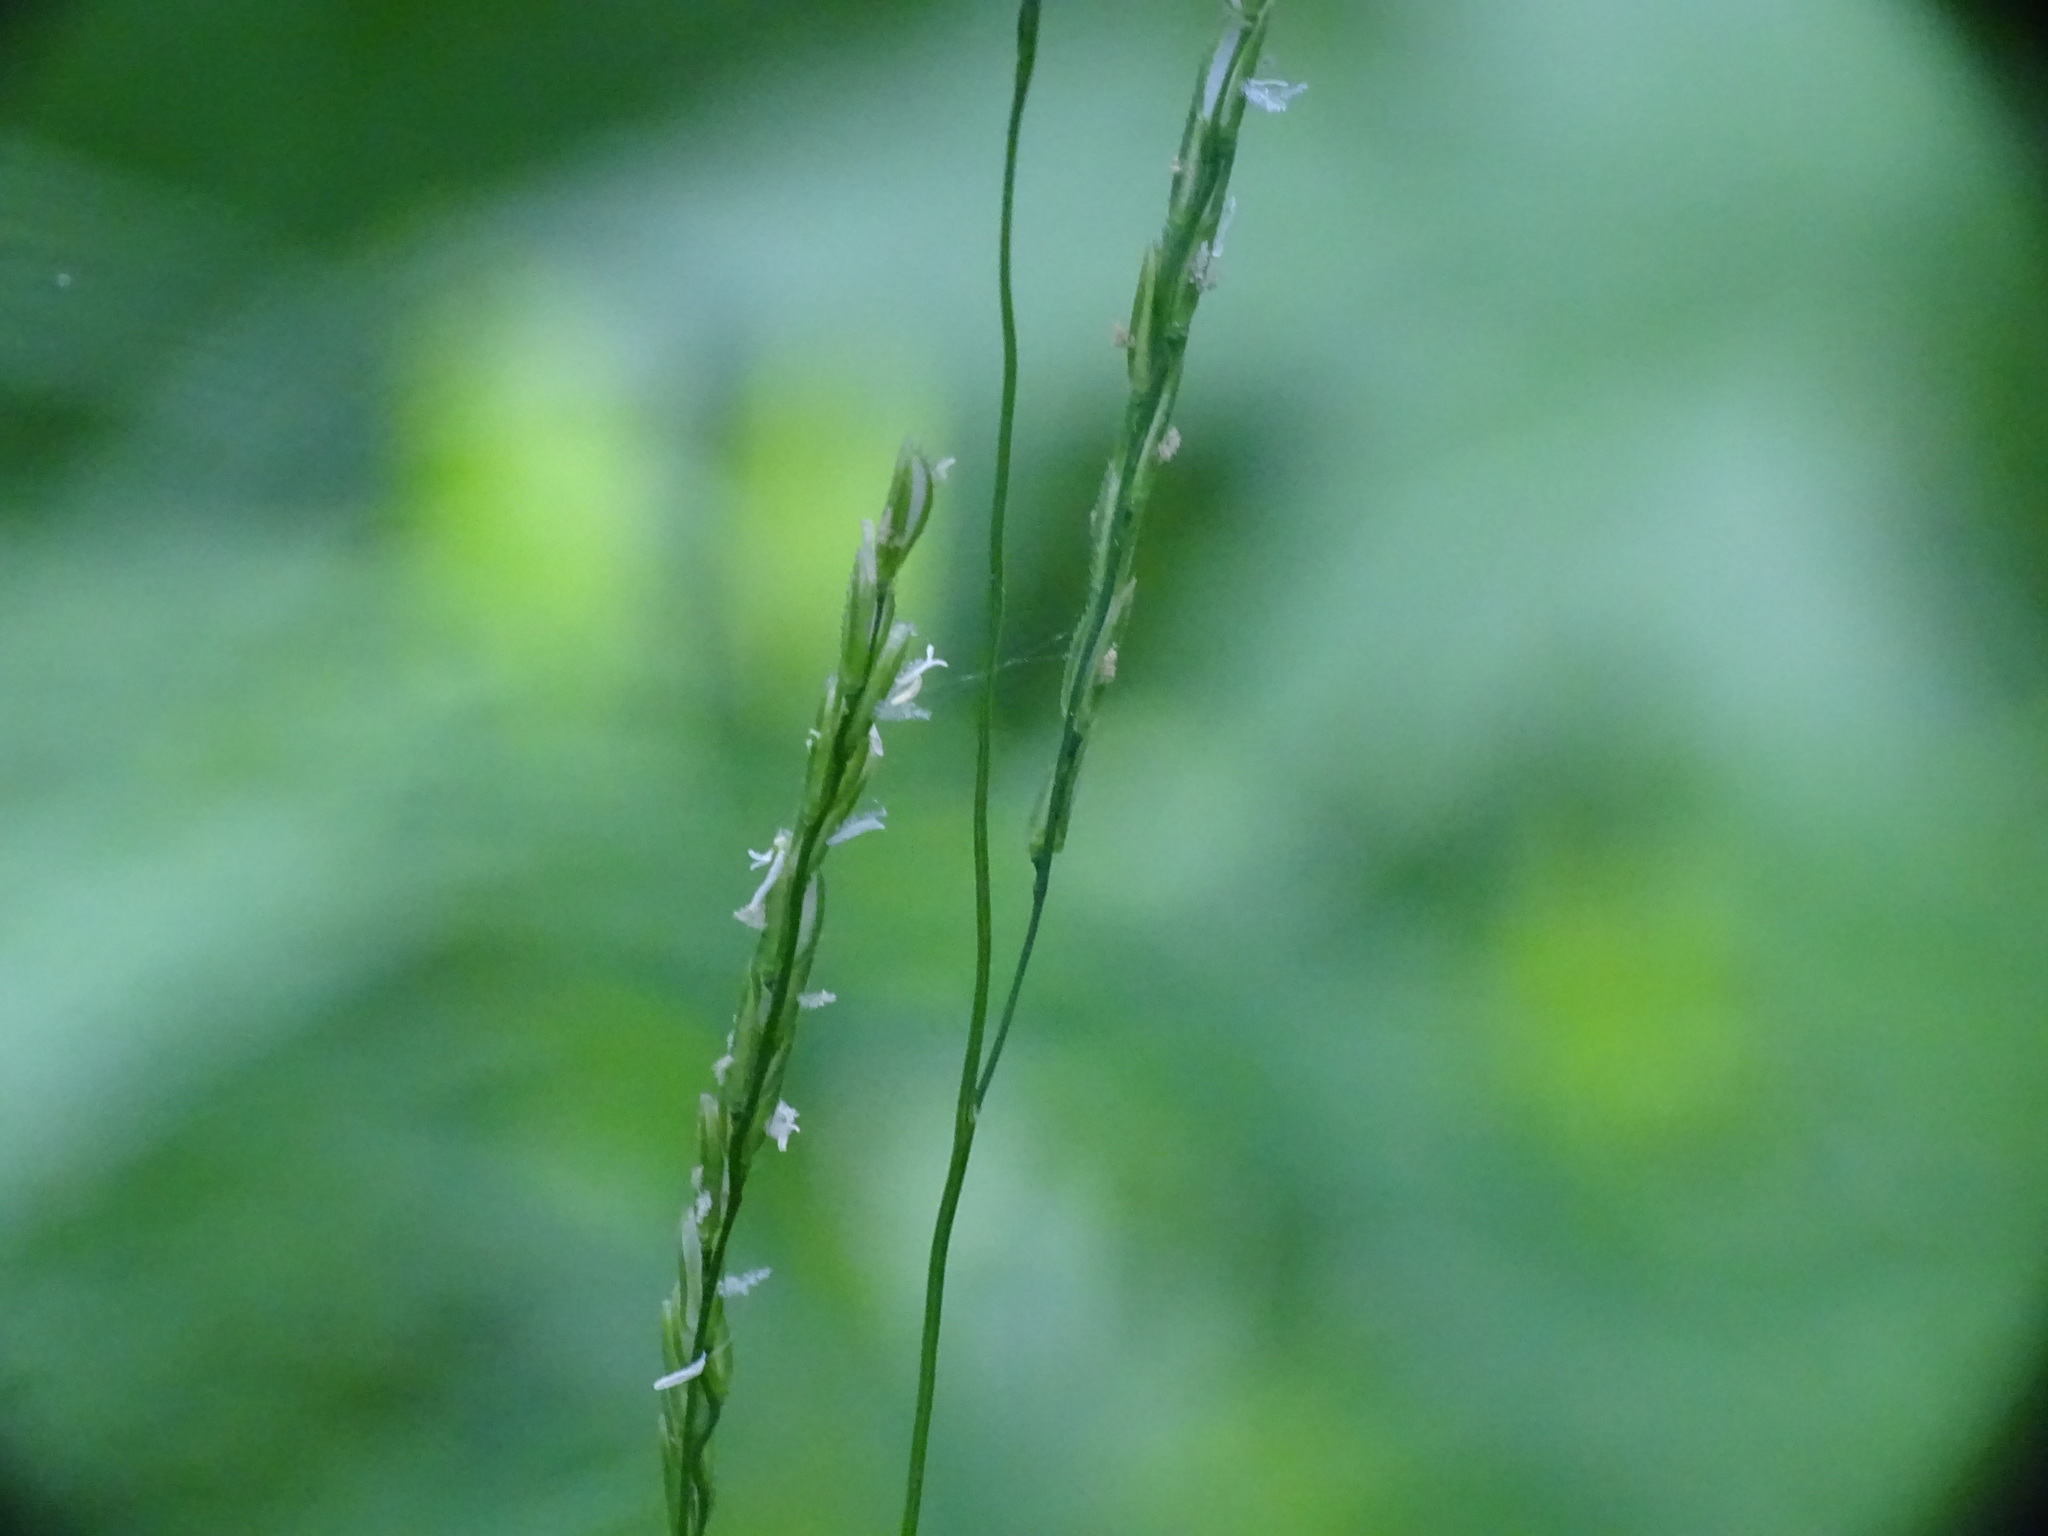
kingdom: Plantae
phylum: Tracheophyta
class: Liliopsida
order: Poales
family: Poaceae
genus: Leersia
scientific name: Leersia virginica
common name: White cutgrass
